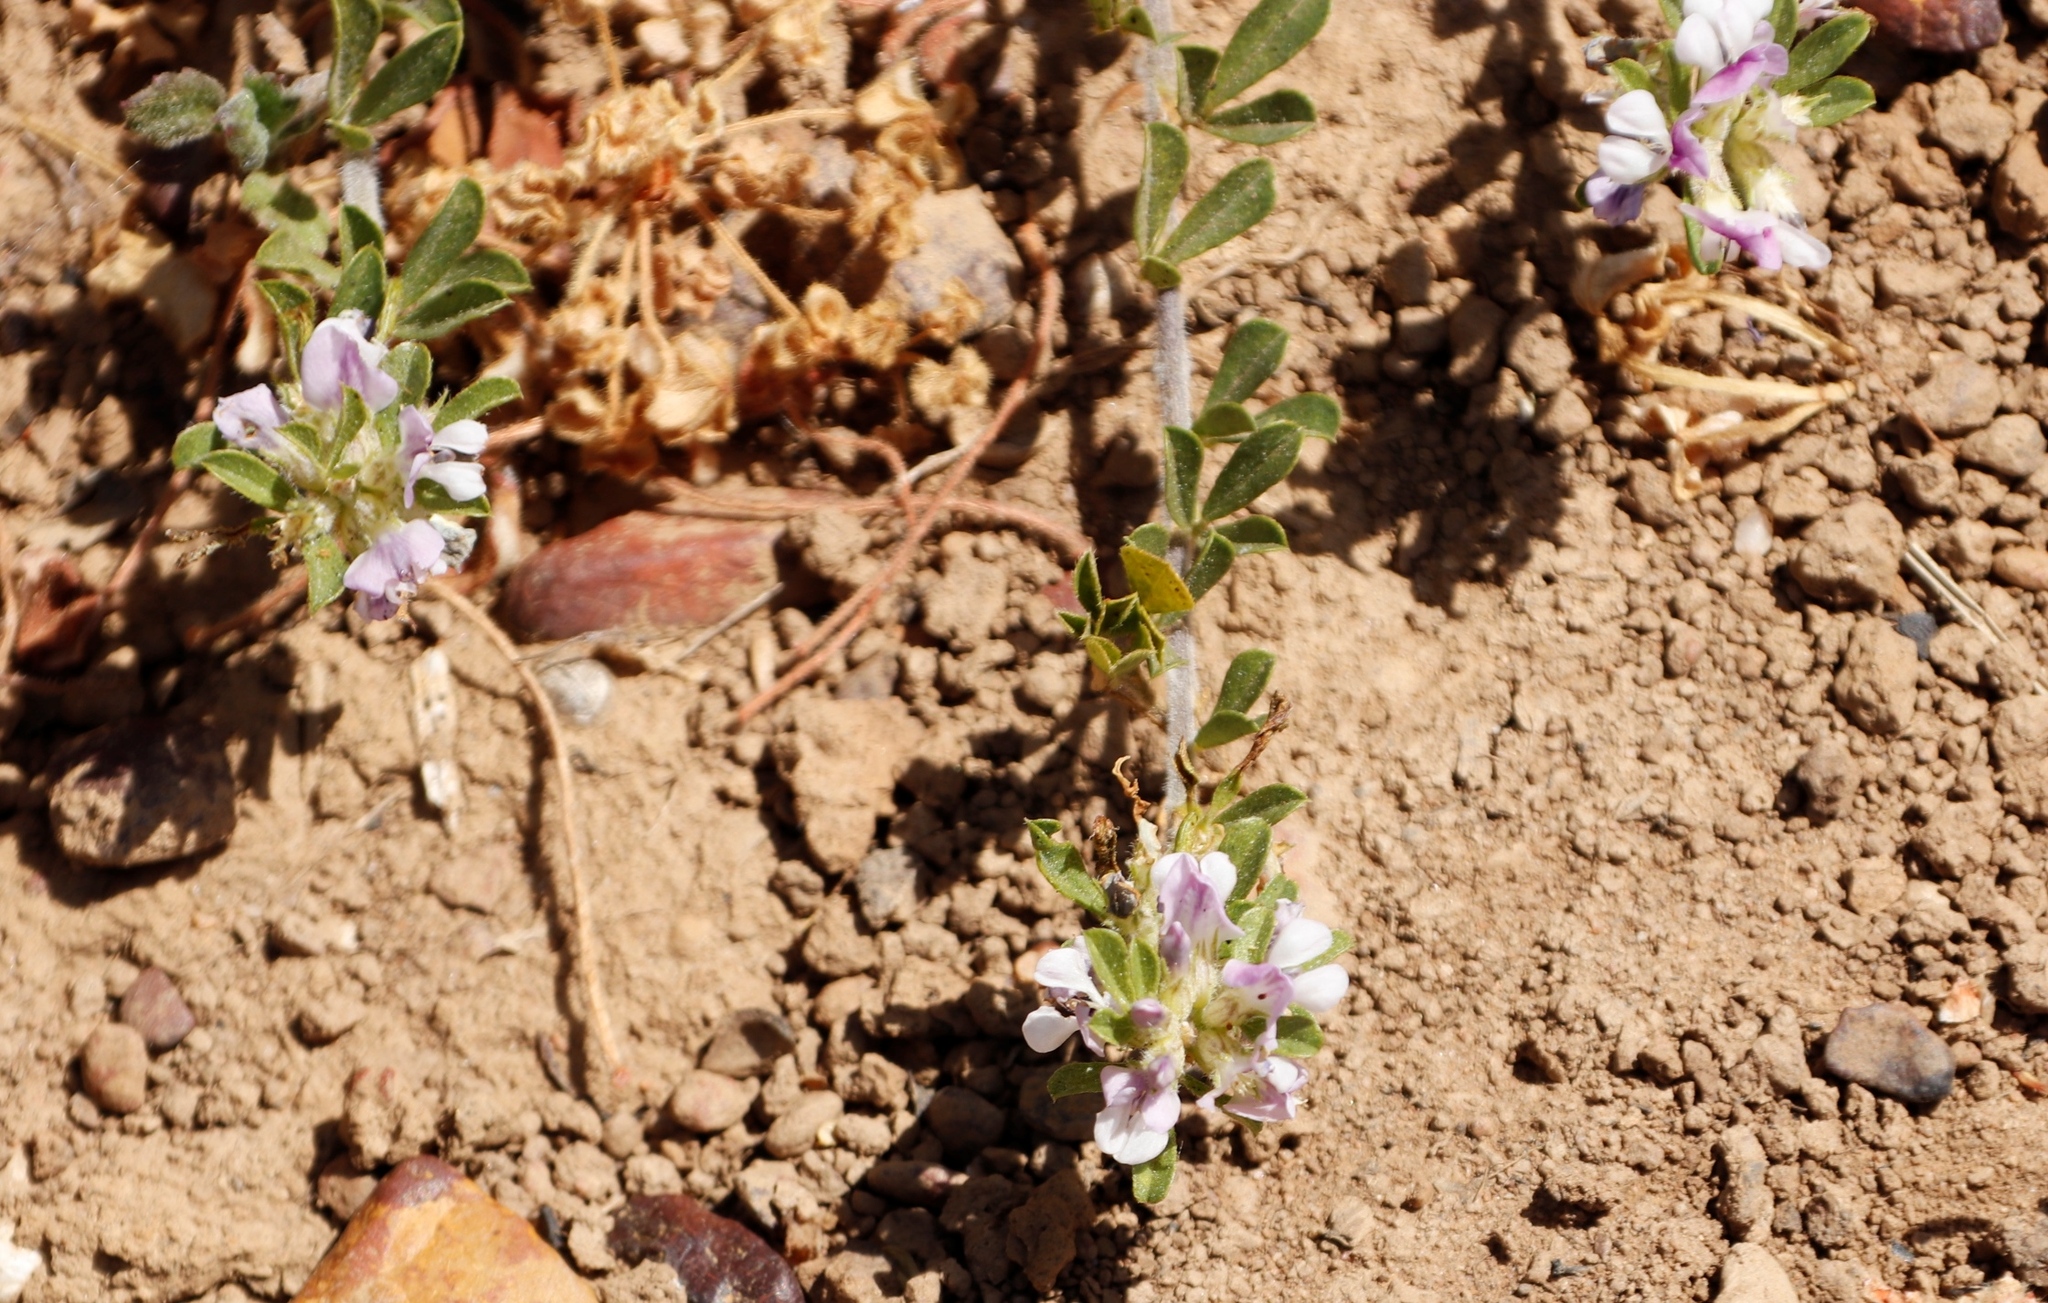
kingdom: Plantae
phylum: Tracheophyta
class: Magnoliopsida
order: Fabales
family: Fabaceae
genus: Psoralea
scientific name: Psoralea
